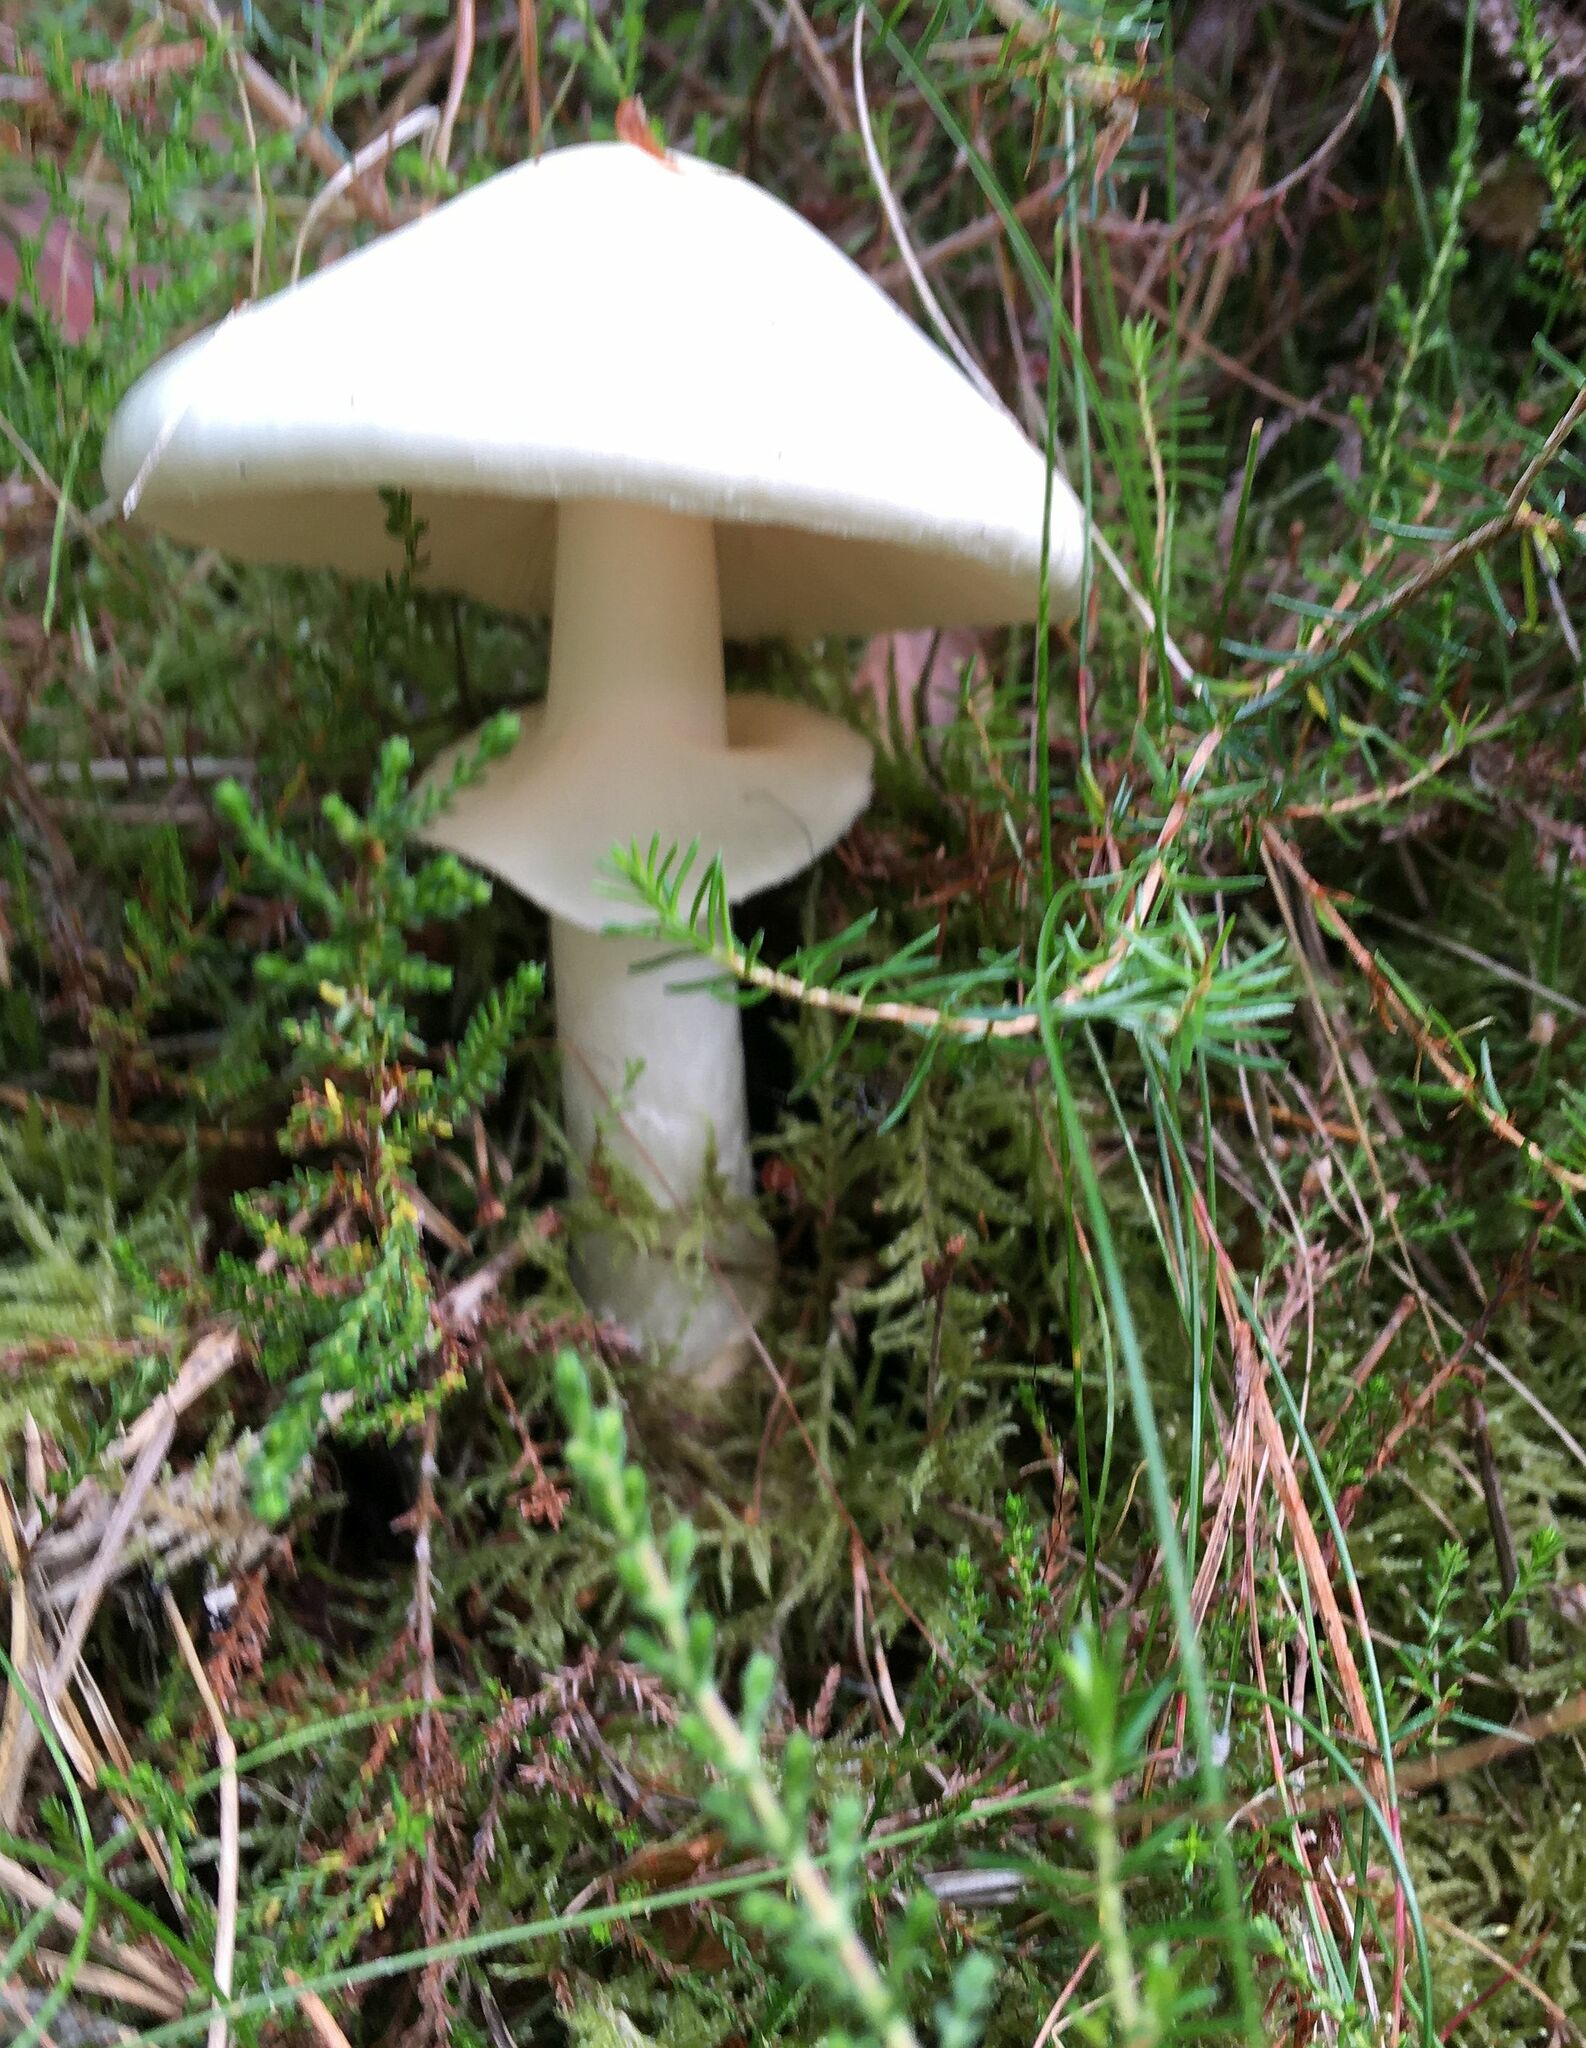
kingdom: Fungi
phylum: Basidiomycota
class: Agaricomycetes
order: Agaricales
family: Amanitaceae
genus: Amanita
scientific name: Amanita virosa
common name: Destroying angel
